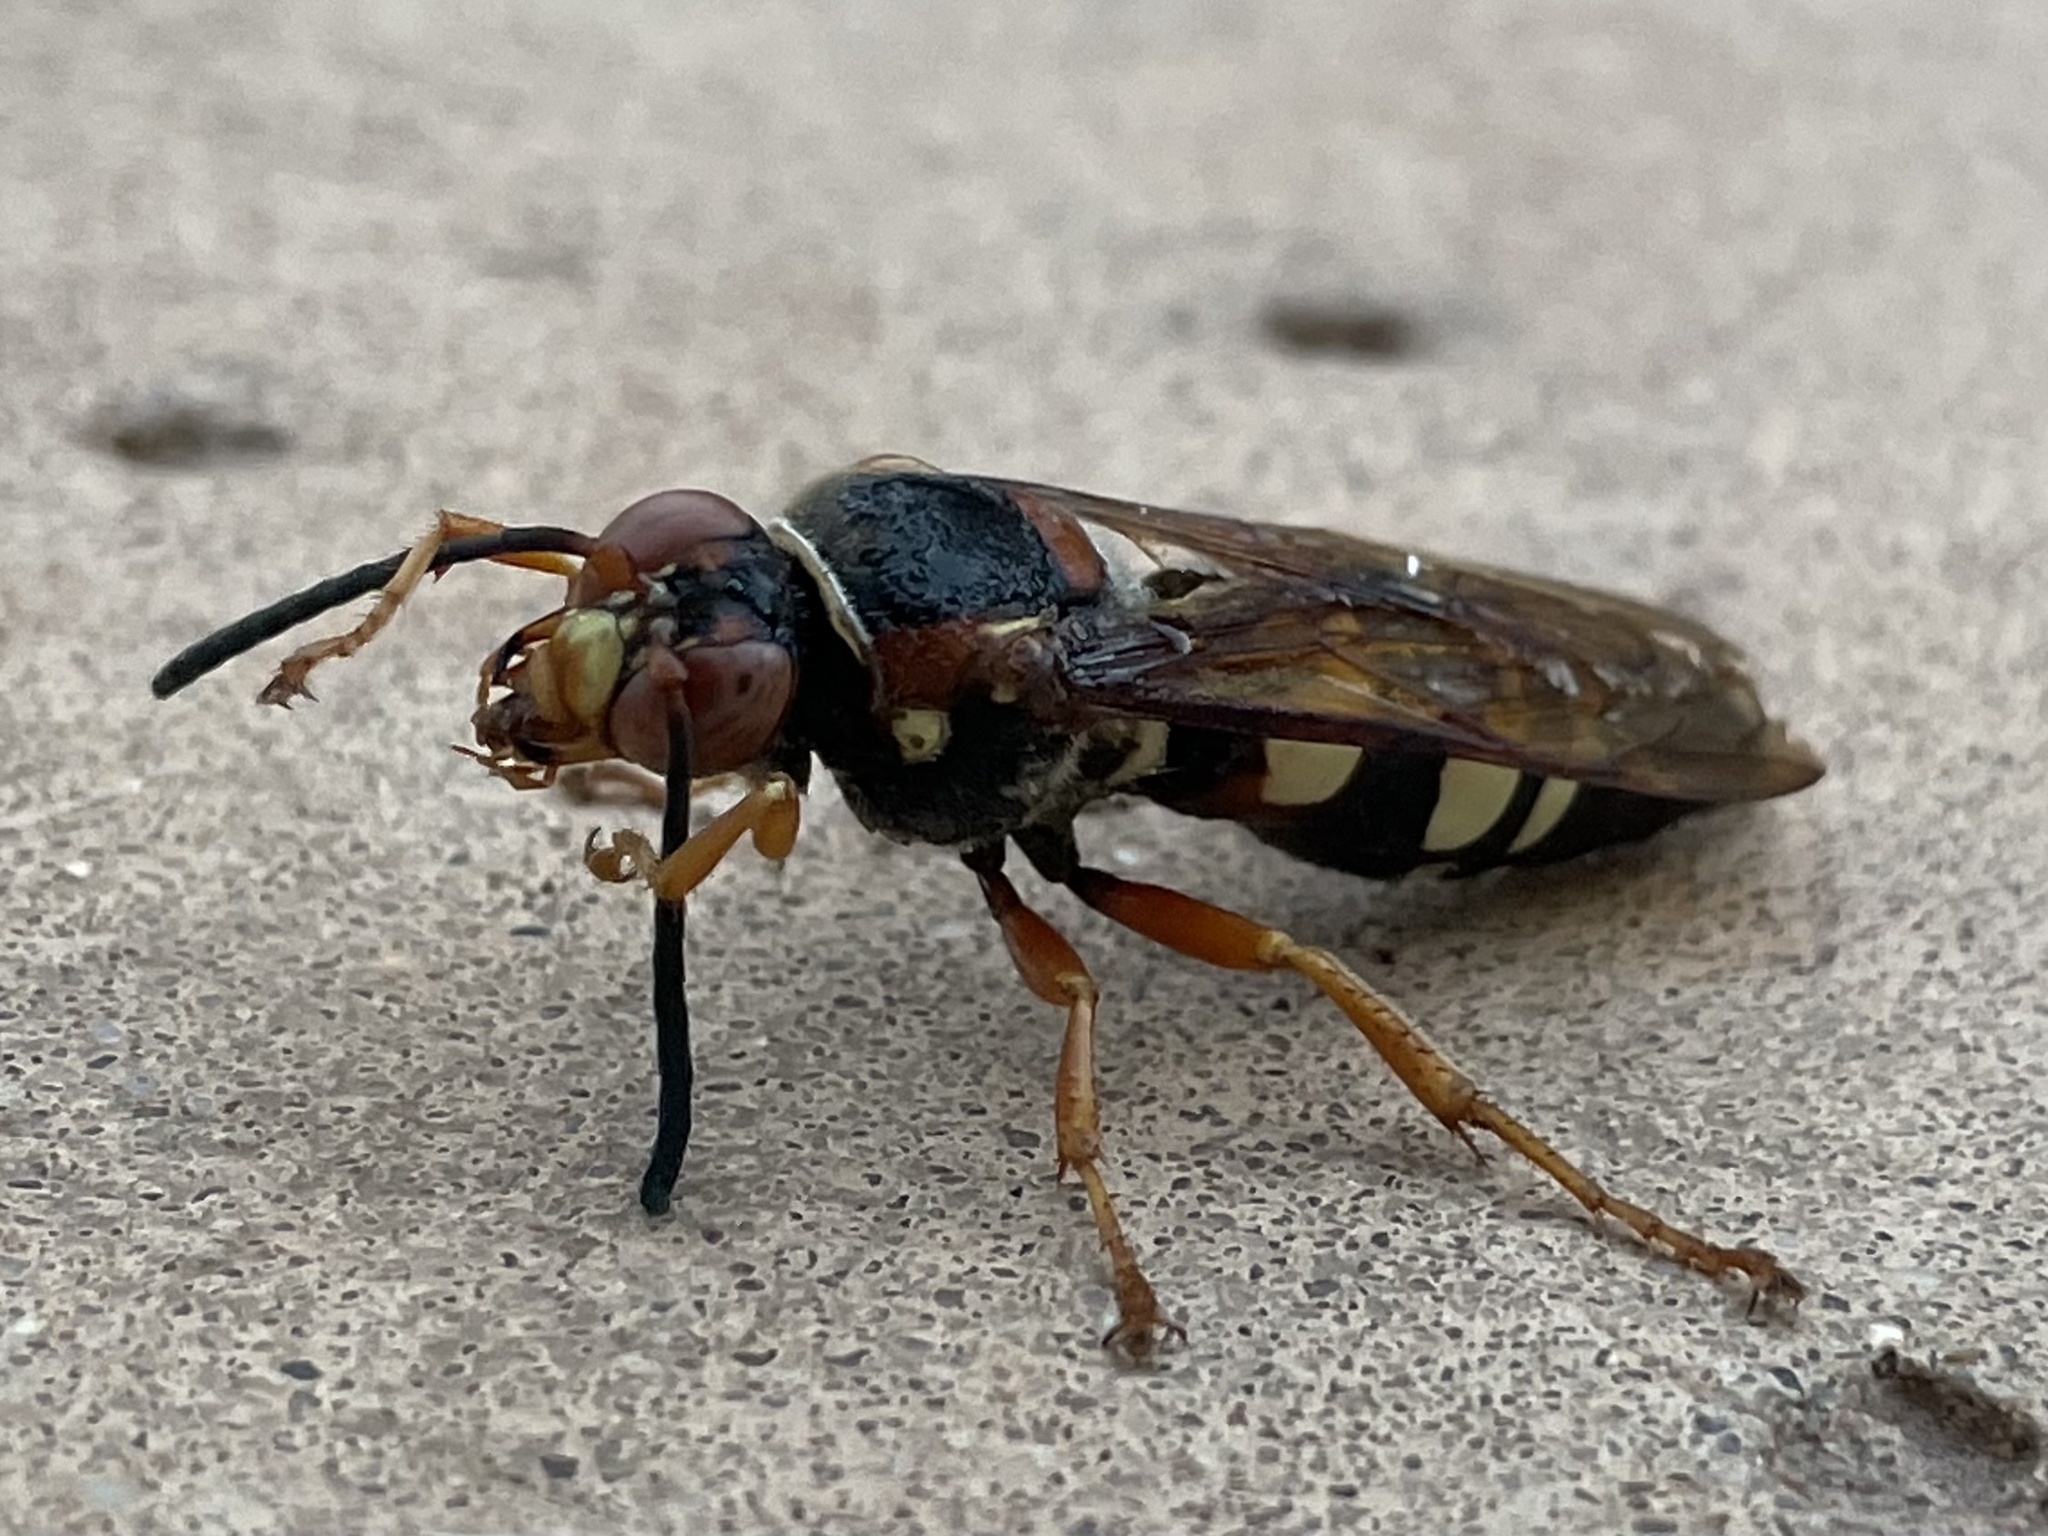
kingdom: Animalia
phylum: Arthropoda
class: Insecta
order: Hymenoptera
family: Crabronidae
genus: Sphecius
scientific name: Sphecius speciosus
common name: Cicada killer
